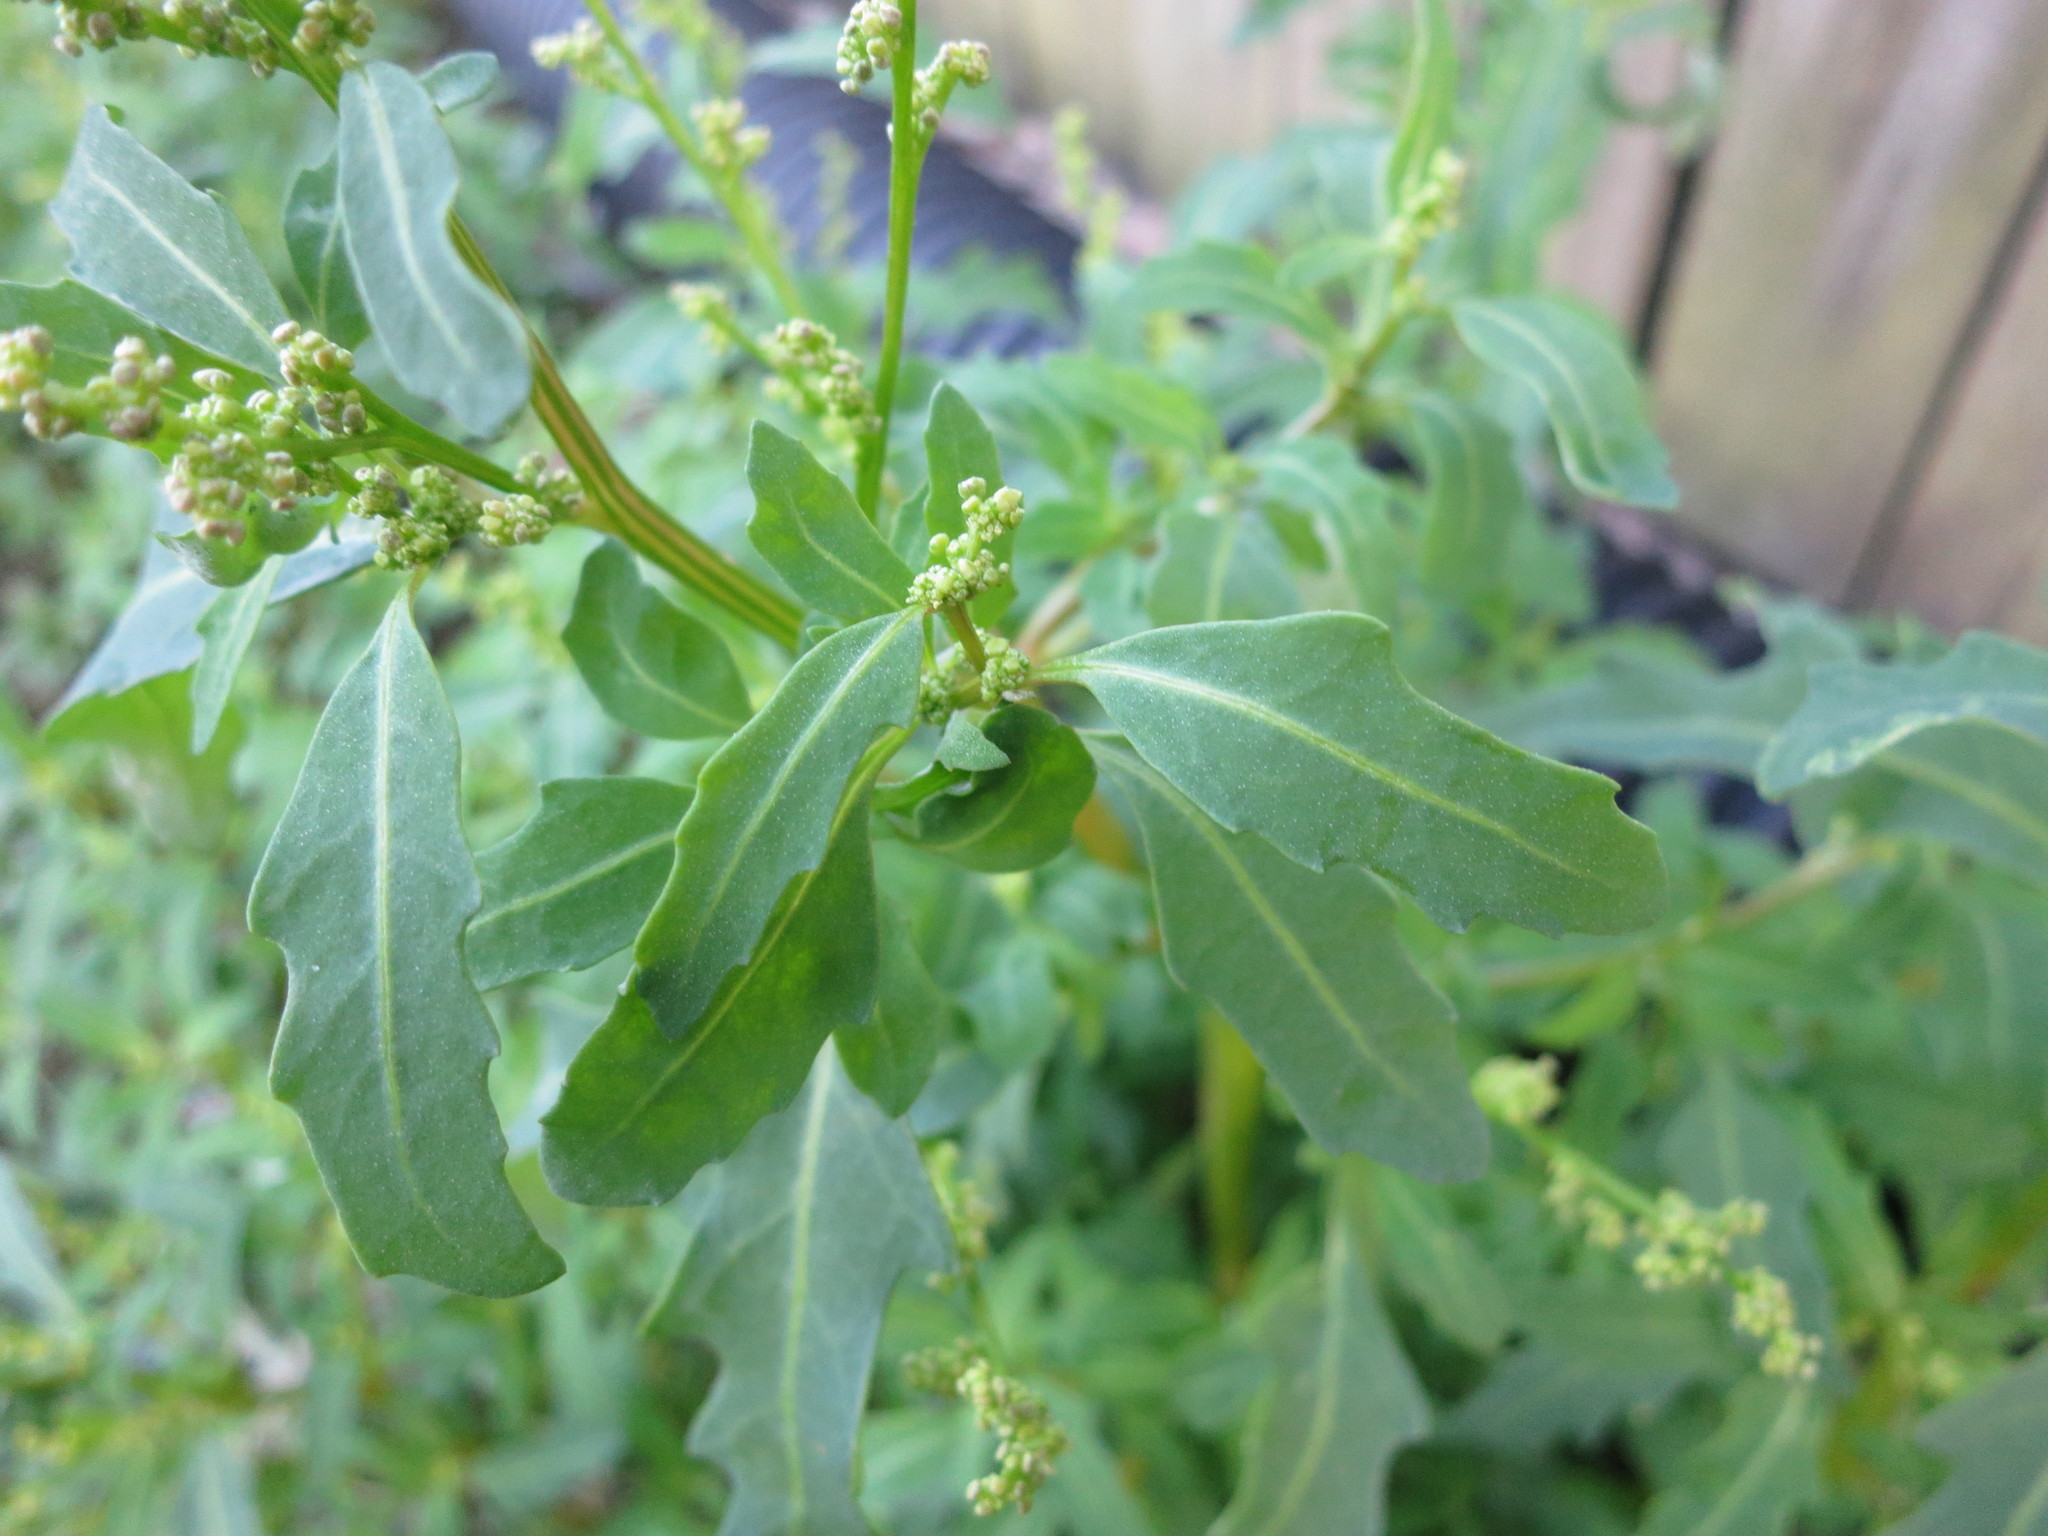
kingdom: Plantae
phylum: Tracheophyta
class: Magnoliopsida
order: Caryophyllales
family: Amaranthaceae
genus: Chenopodium
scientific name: Chenopodium album
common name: Fat-hen
